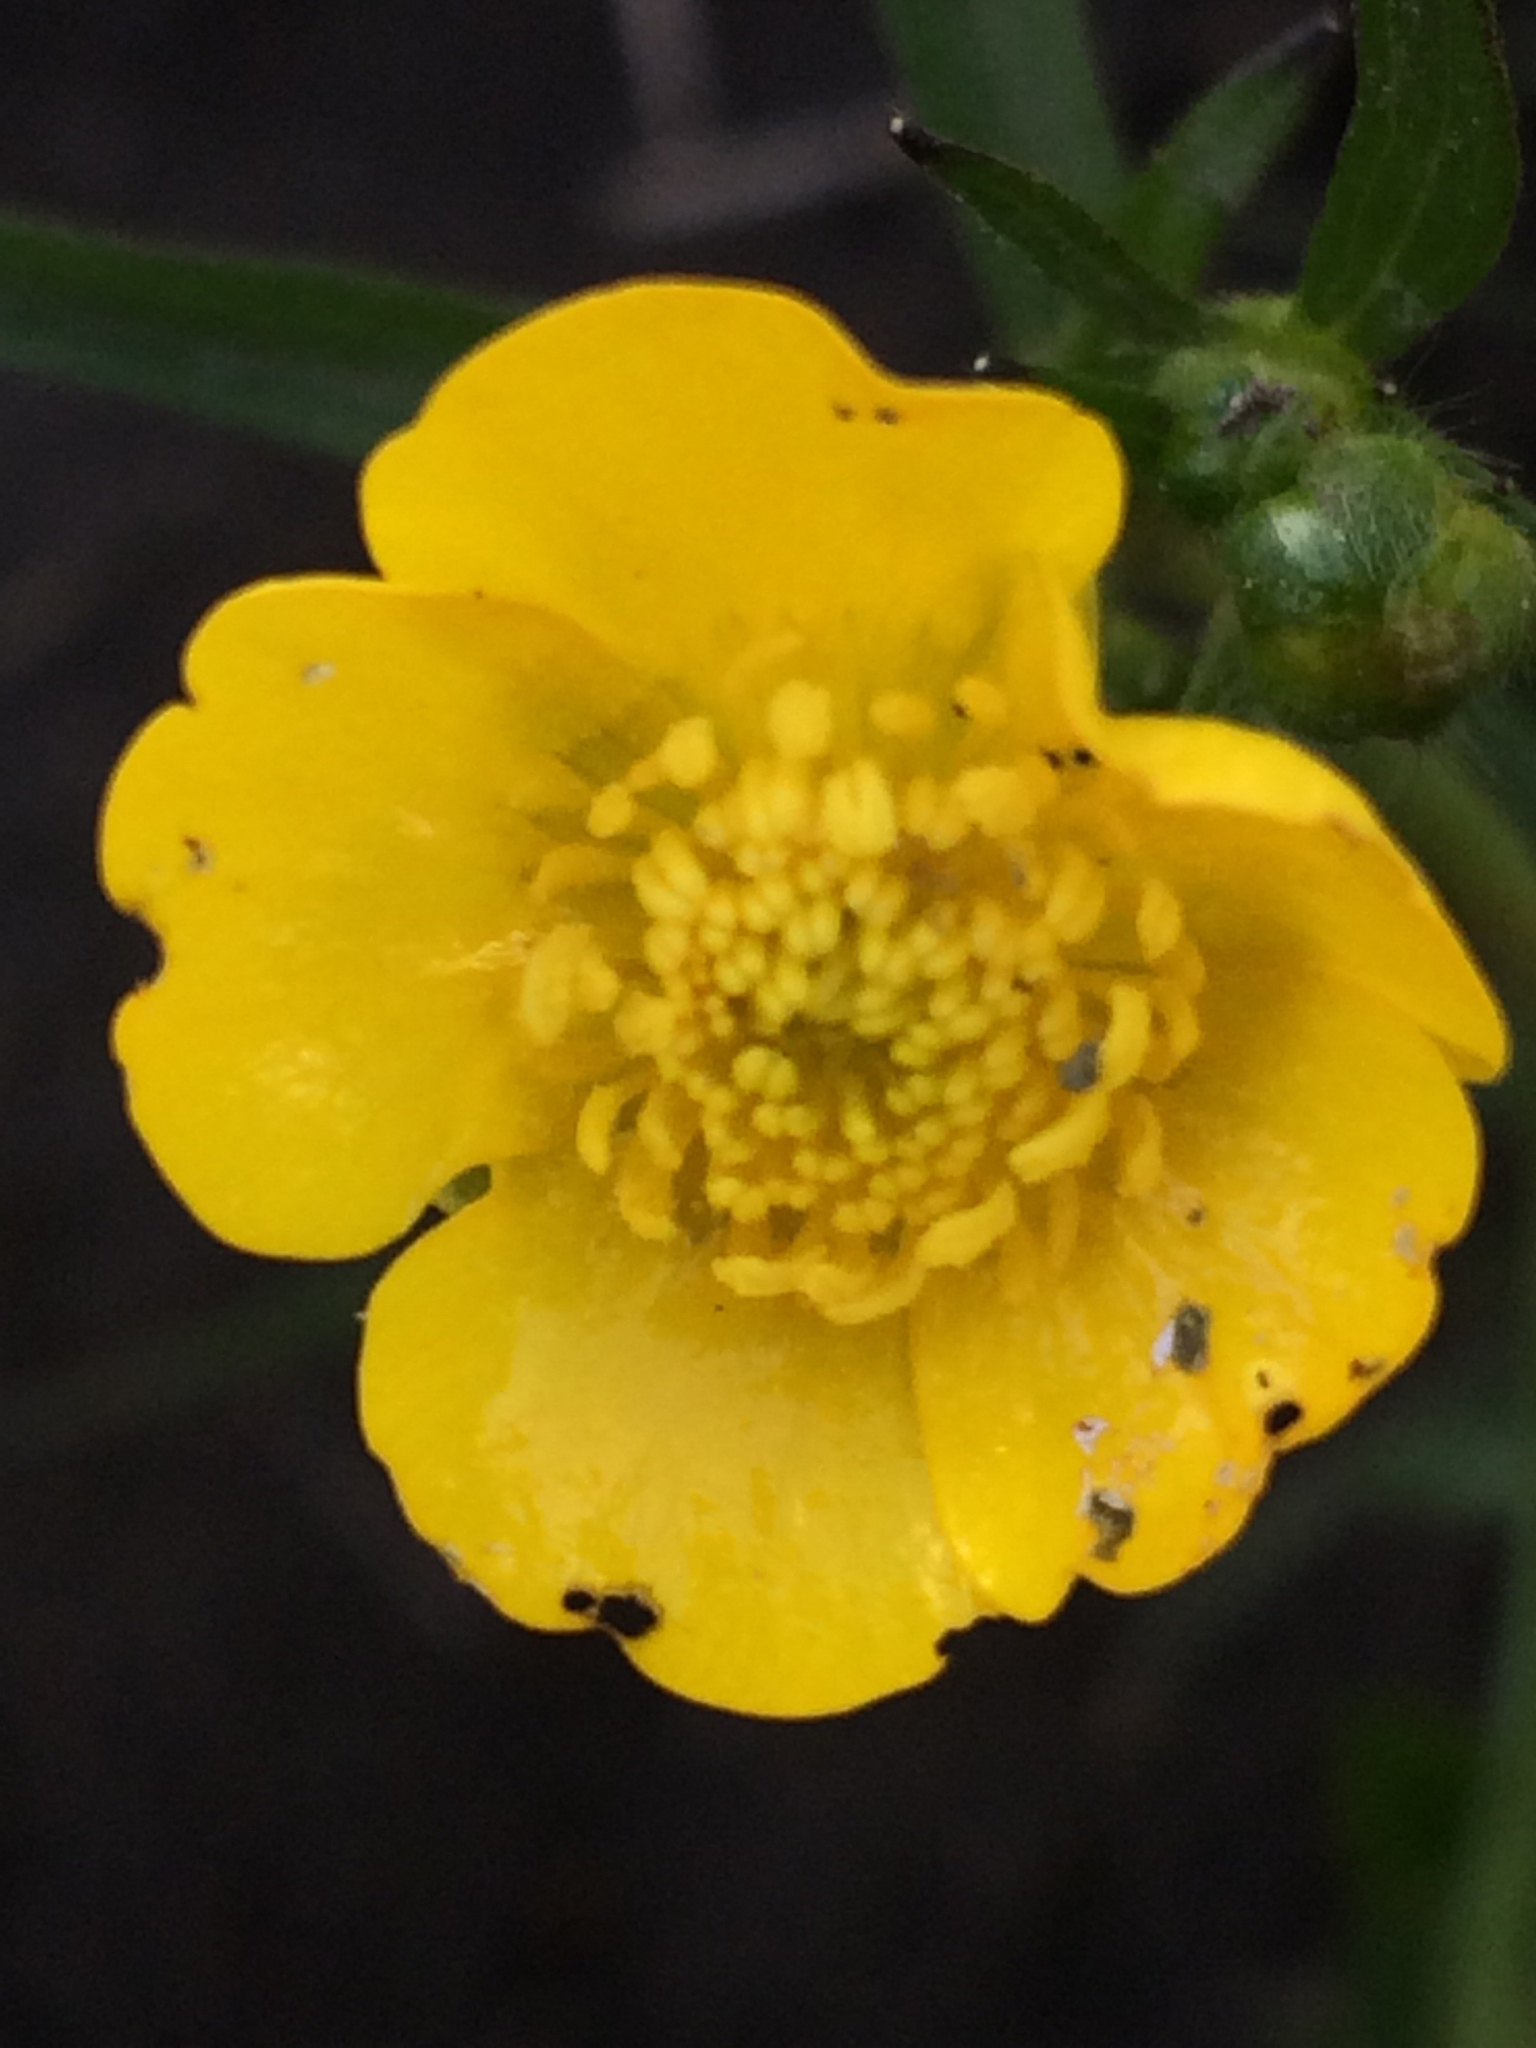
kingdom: Plantae
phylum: Tracheophyta
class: Magnoliopsida
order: Ranunculales
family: Ranunculaceae
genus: Ranunculus
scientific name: Ranunculus acris
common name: Meadow buttercup
